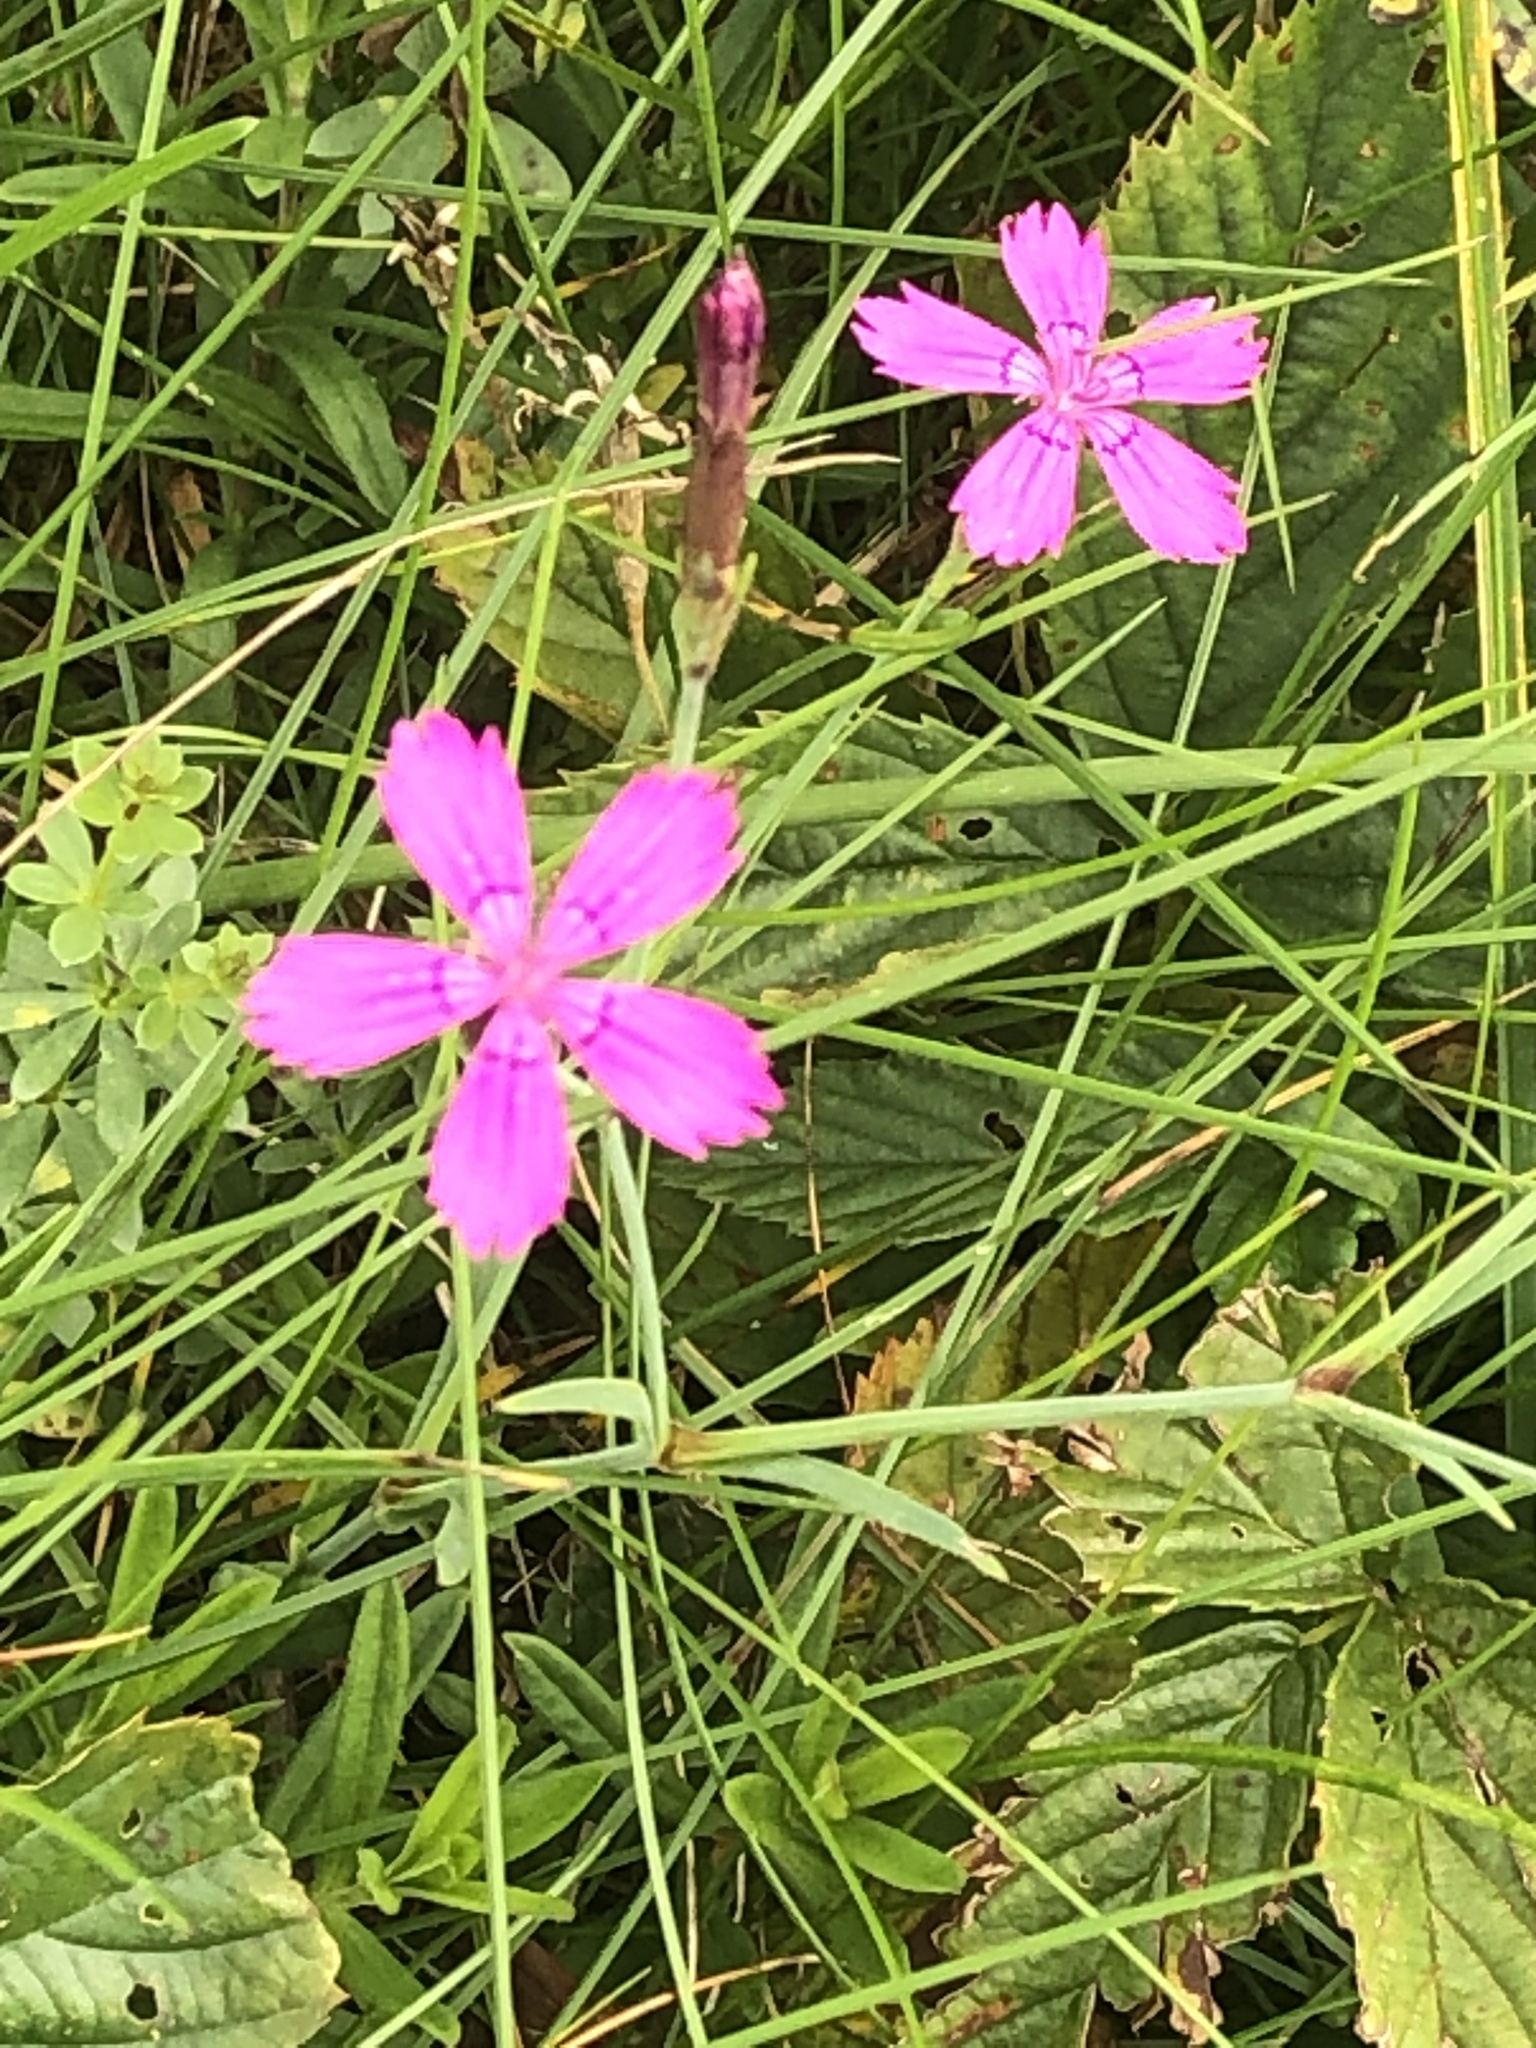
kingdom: Plantae
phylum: Tracheophyta
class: Magnoliopsida
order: Caryophyllales
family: Caryophyllaceae
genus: Dianthus
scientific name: Dianthus deltoides
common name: Maiden pink
